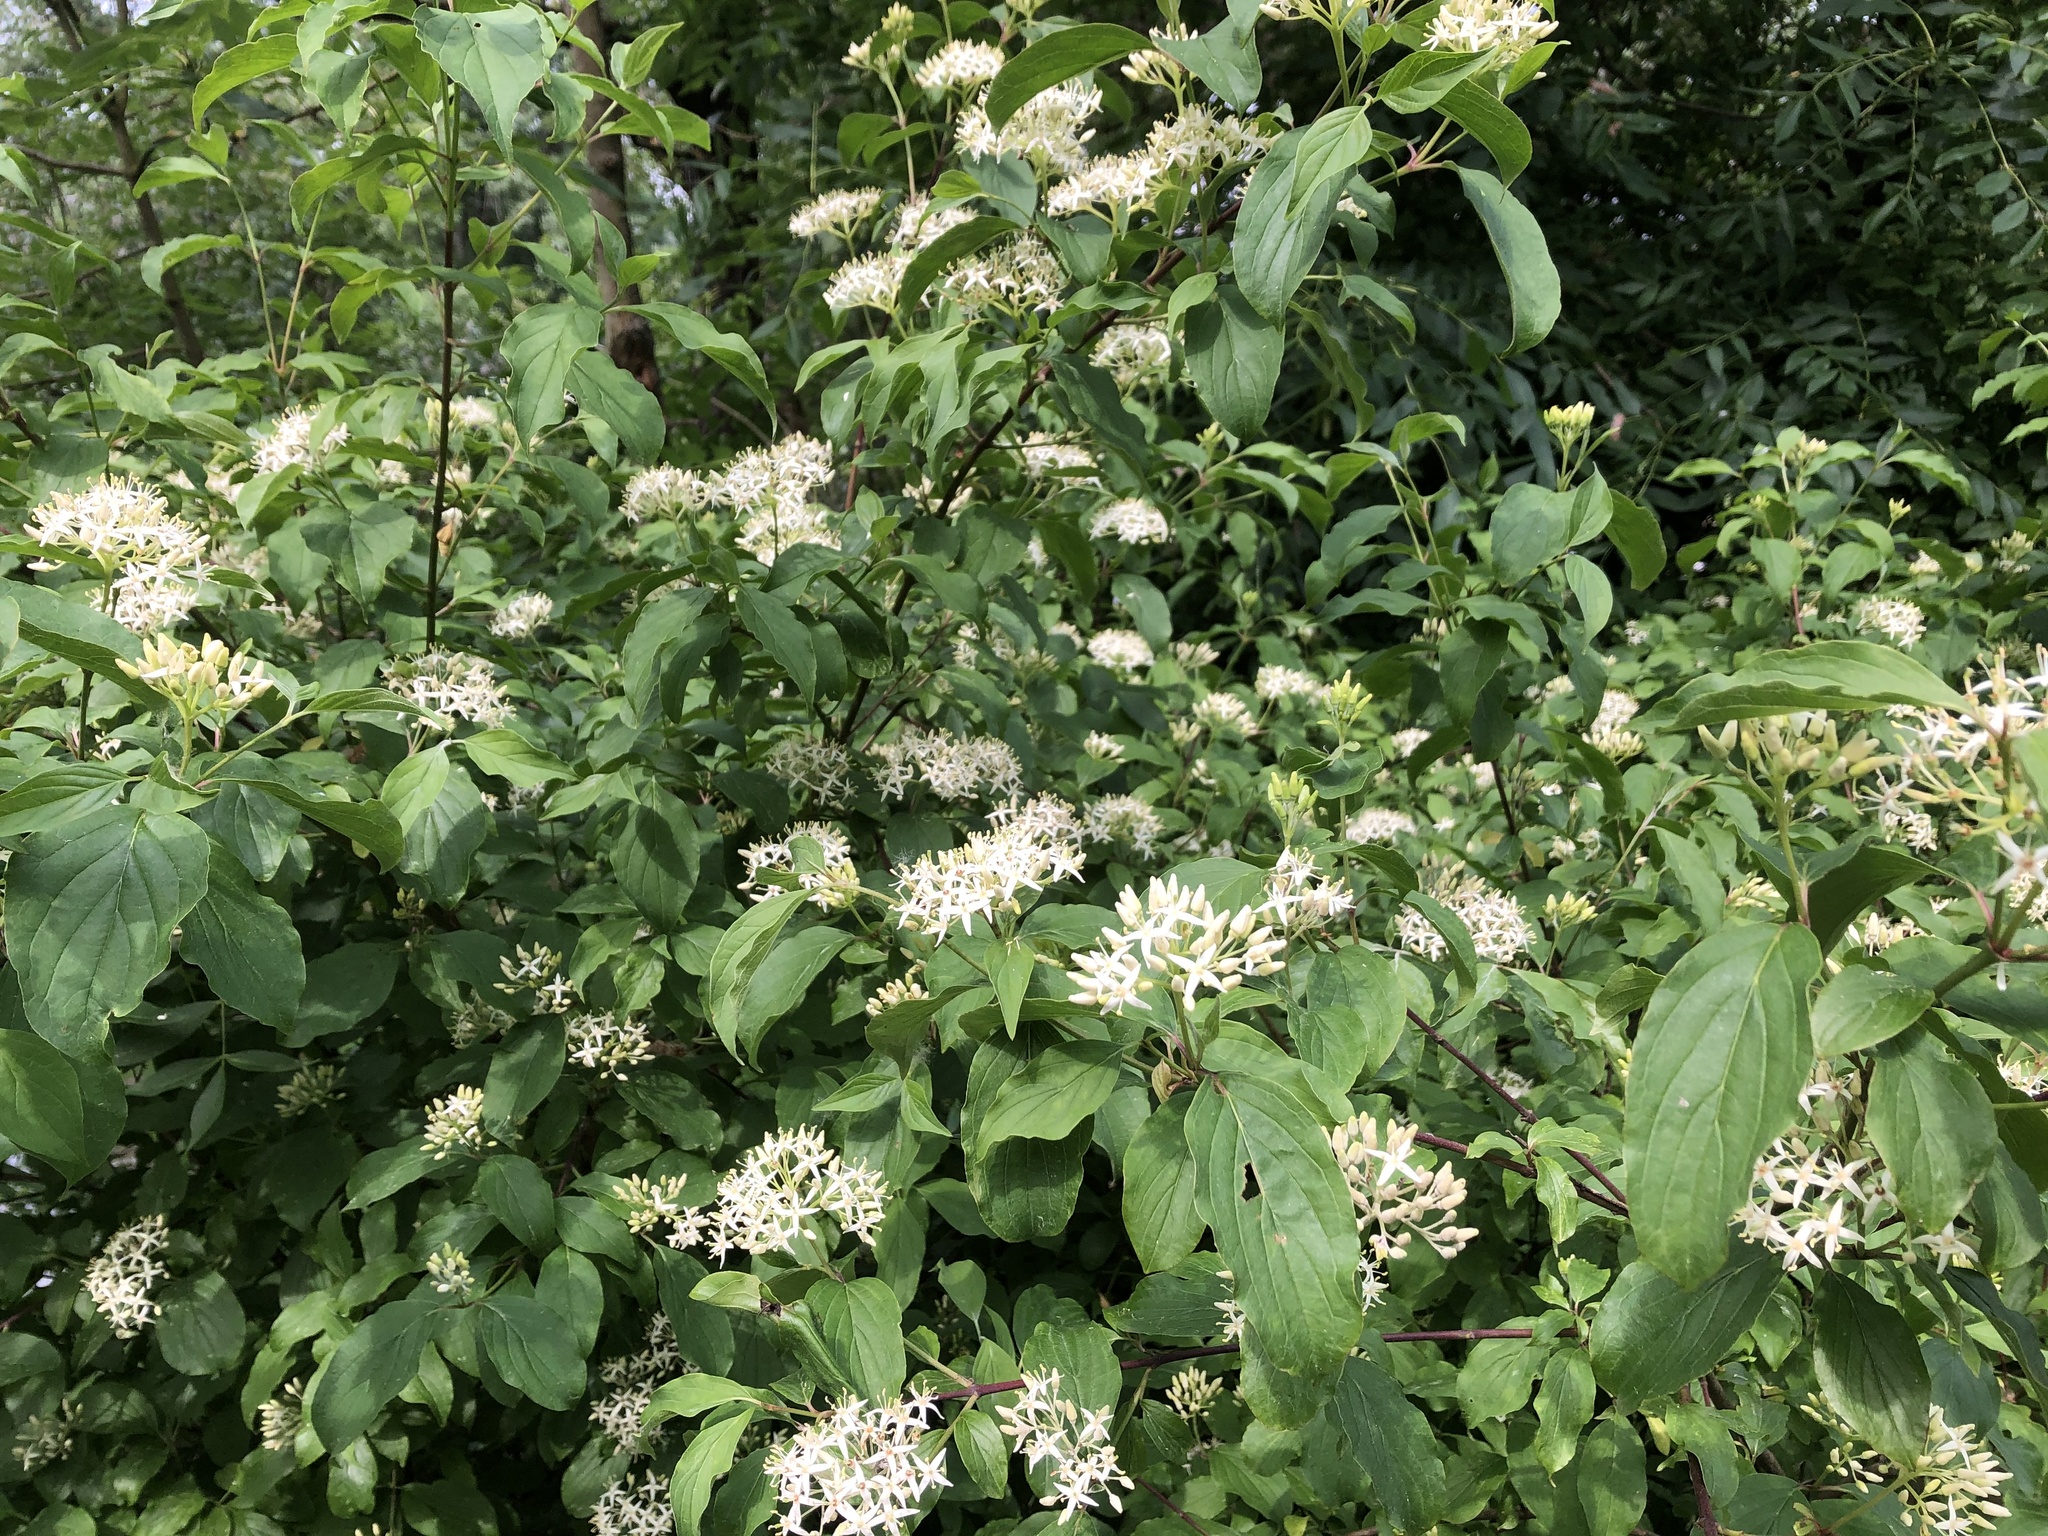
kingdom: Plantae
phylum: Tracheophyta
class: Magnoliopsida
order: Cornales
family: Cornaceae
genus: Cornus
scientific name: Cornus sanguinea
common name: Dogwood
